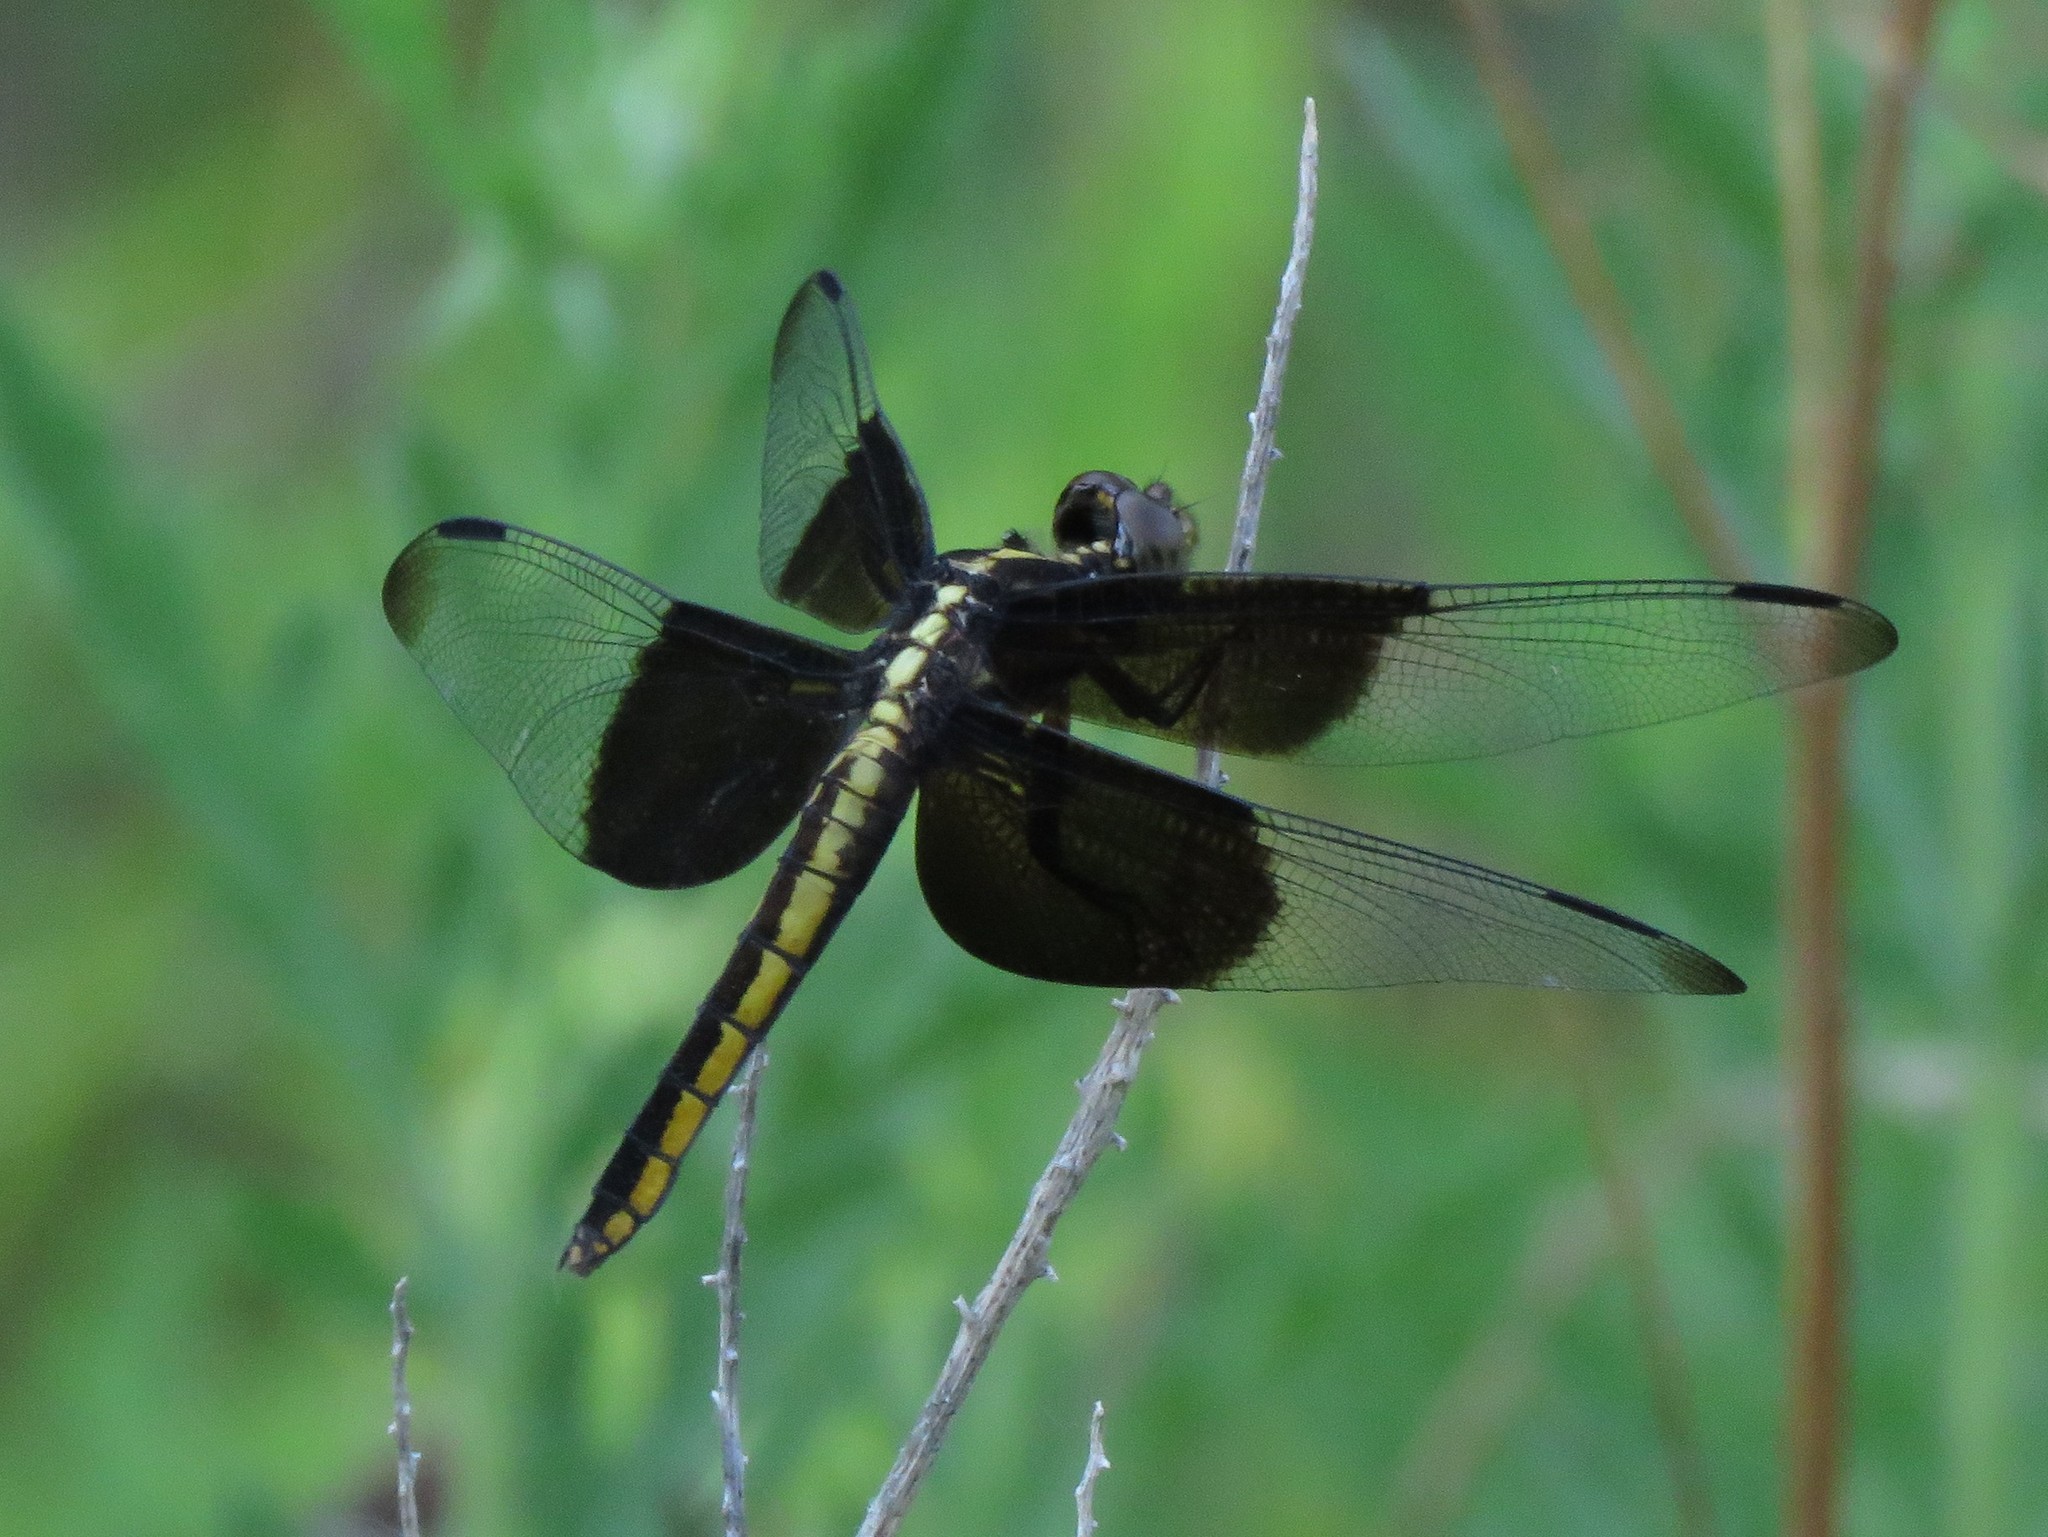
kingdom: Animalia
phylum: Arthropoda
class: Insecta
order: Odonata
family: Libellulidae
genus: Libellula
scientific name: Libellula luctuosa
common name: Widow skimmer
